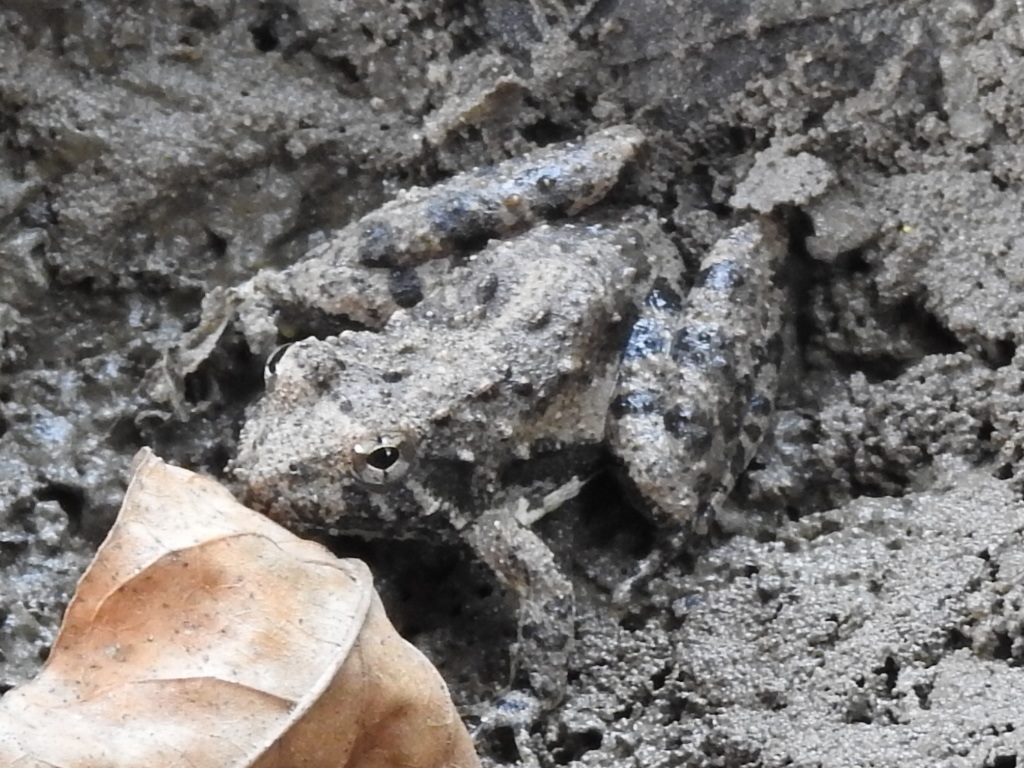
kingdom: Animalia
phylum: Chordata
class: Amphibia
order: Anura
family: Hylidae
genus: Acris
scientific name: Acris blanchardi
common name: Blanchard's cricket frog
